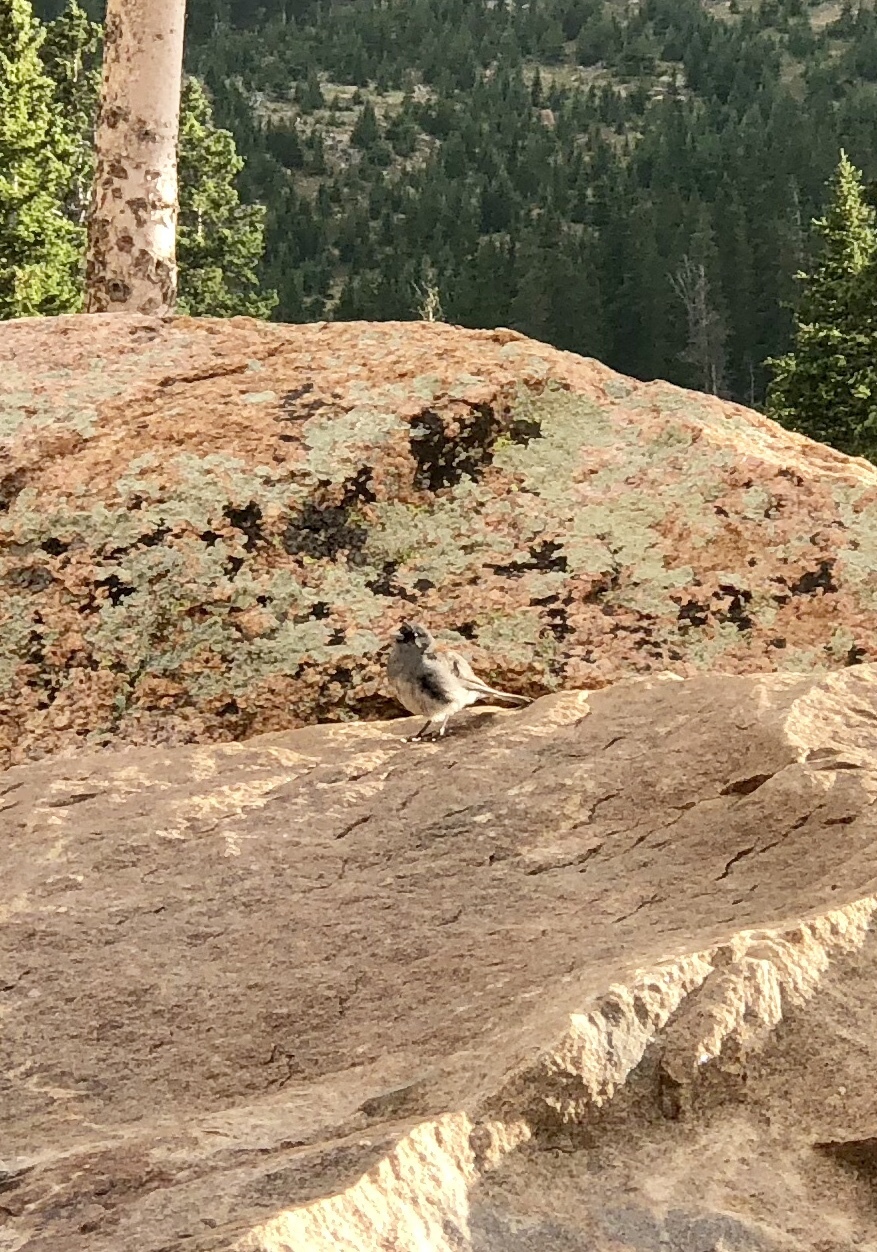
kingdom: Animalia
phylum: Chordata
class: Aves
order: Passeriformes
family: Passerellidae
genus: Junco
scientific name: Junco hyemalis
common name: Dark-eyed junco
